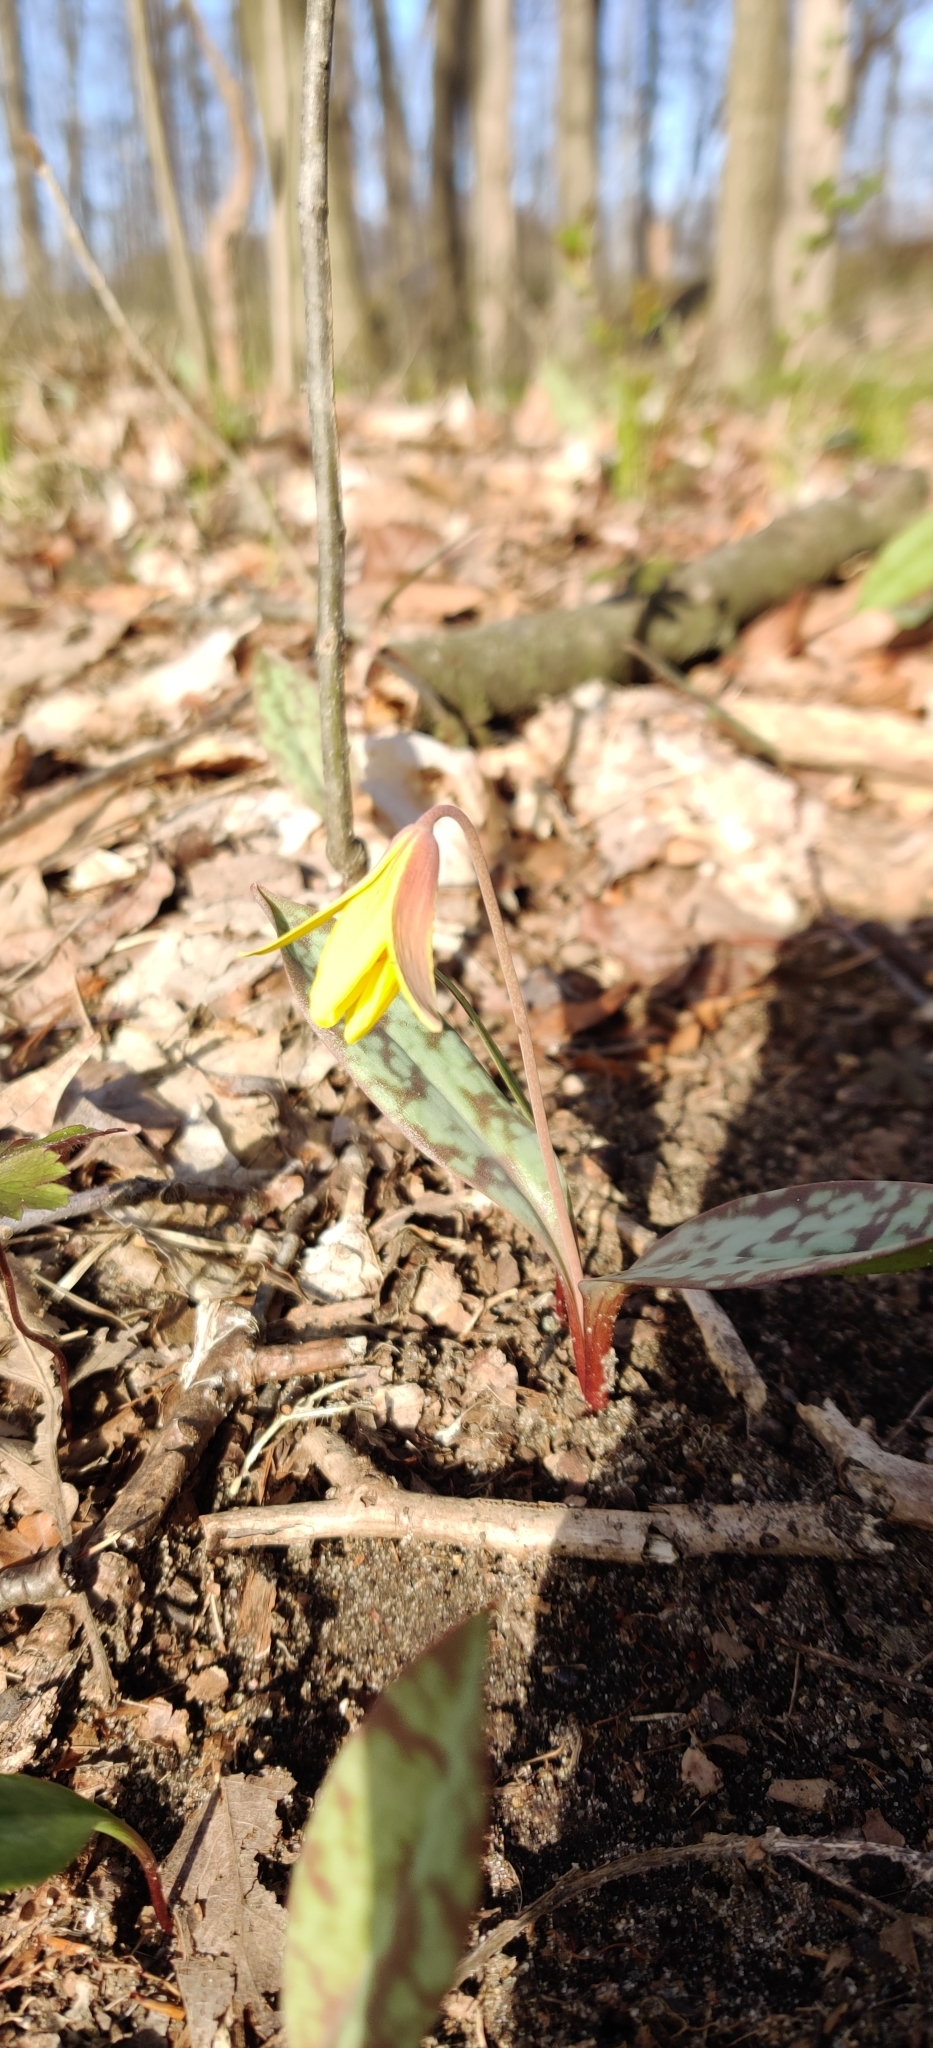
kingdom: Plantae
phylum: Tracheophyta
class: Liliopsida
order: Liliales
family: Liliaceae
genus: Erythronium
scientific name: Erythronium americanum
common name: Yellow adder's-tongue
